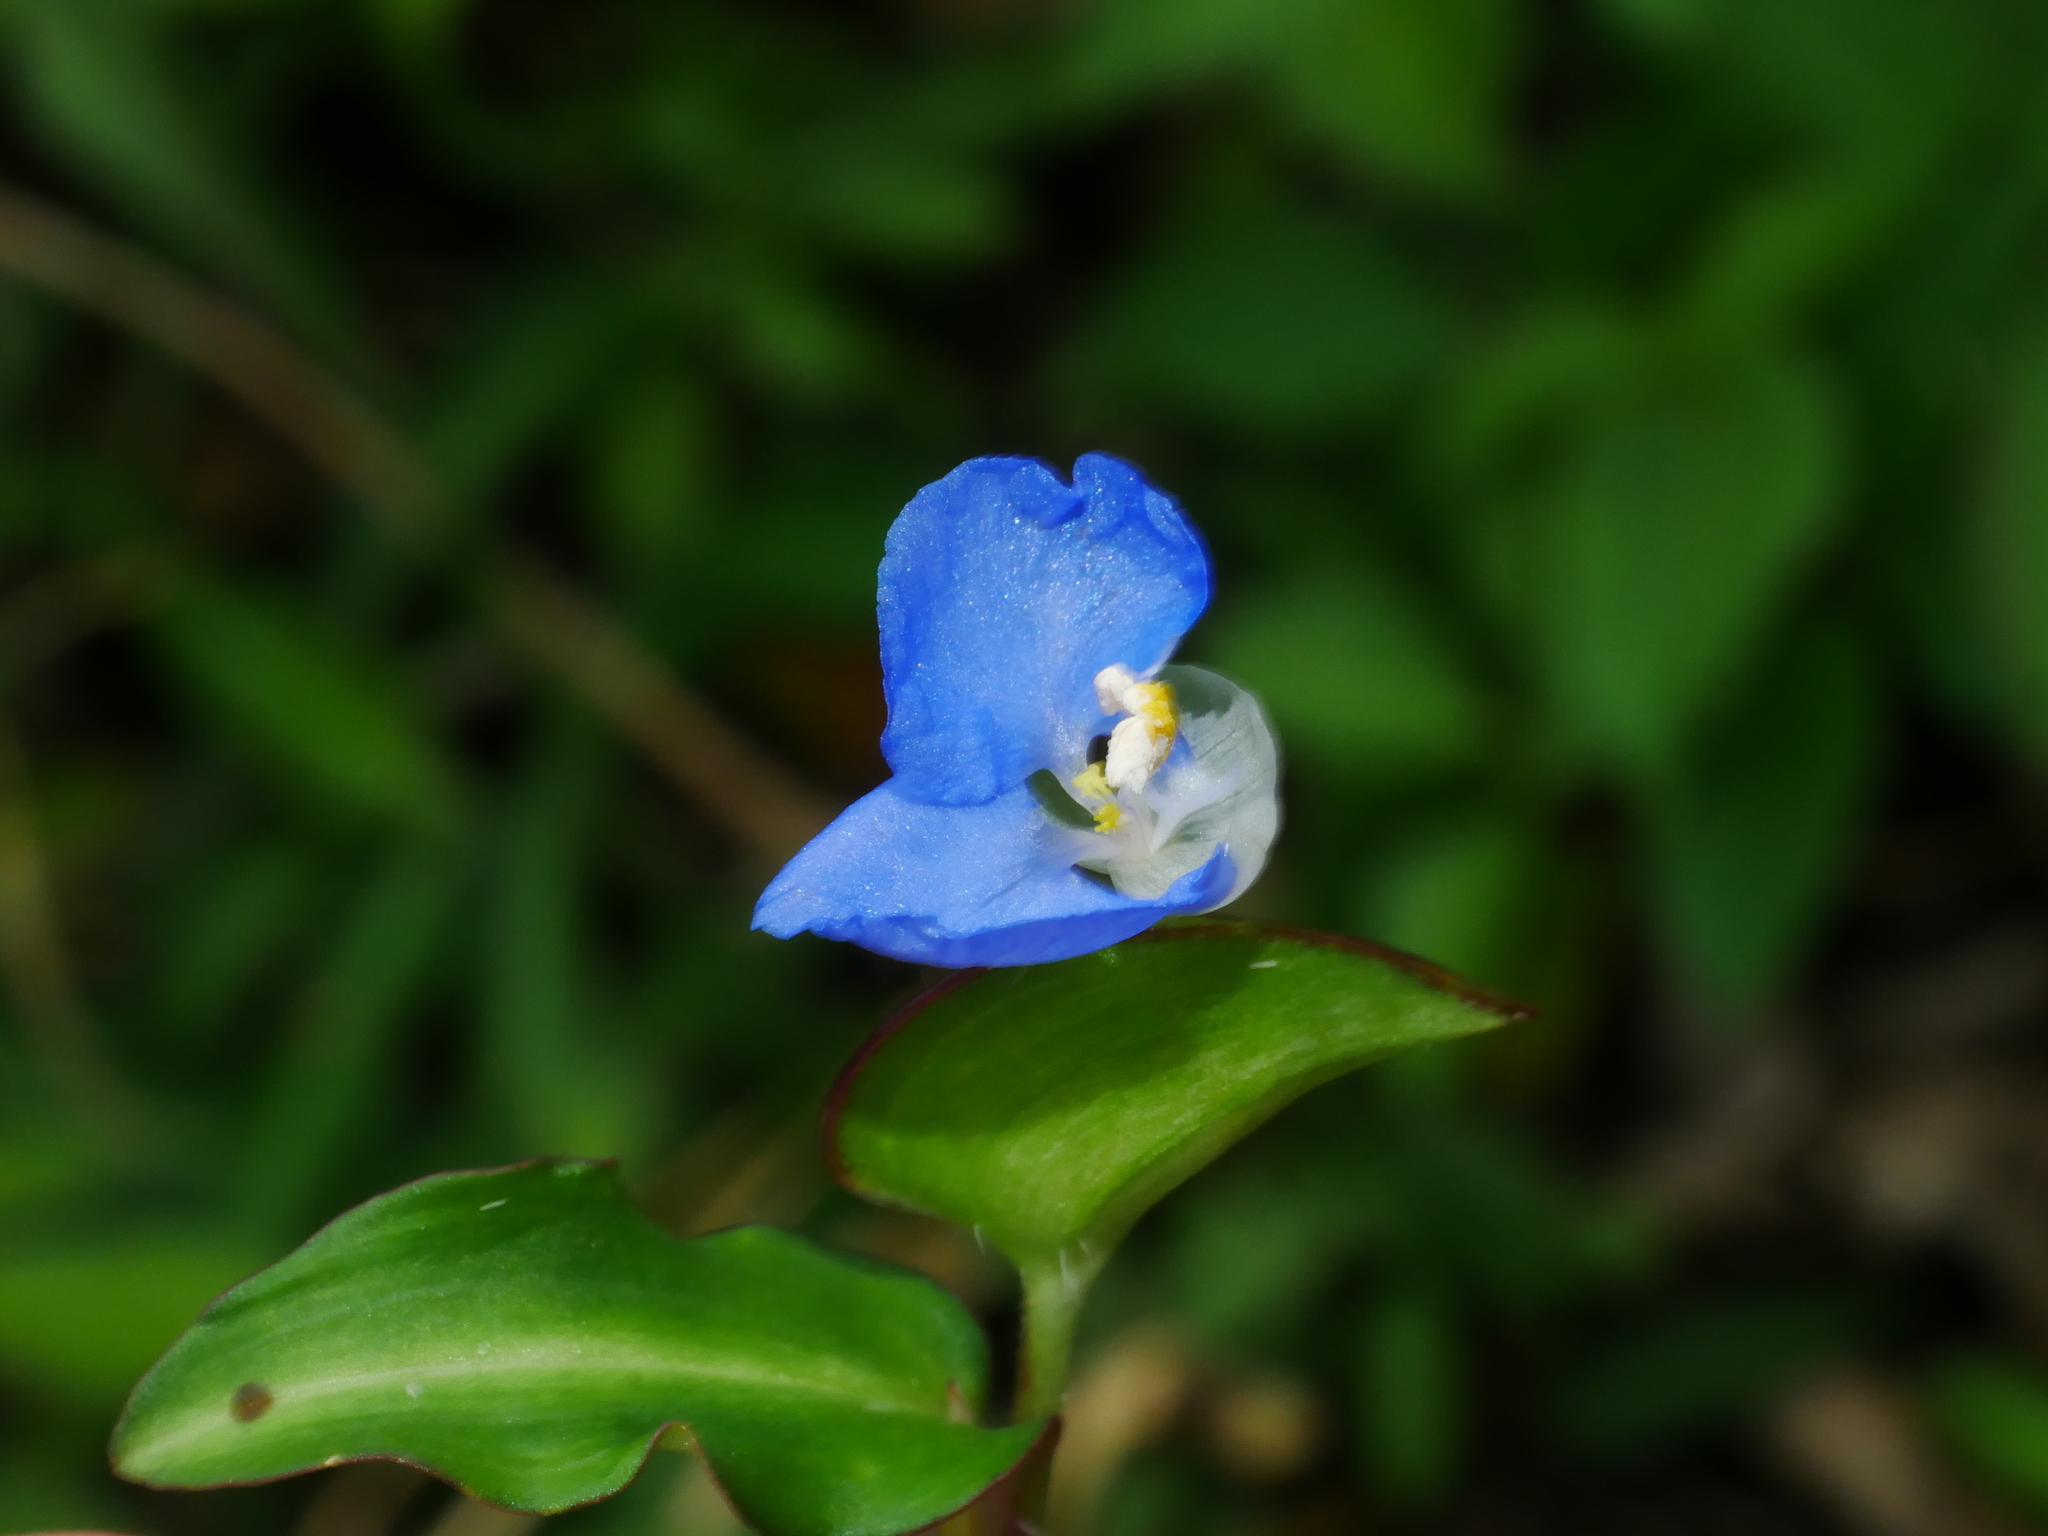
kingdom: Plantae
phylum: Tracheophyta
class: Liliopsida
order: Commelinales
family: Commelinaceae
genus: Commelina
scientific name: Commelina auriculata
